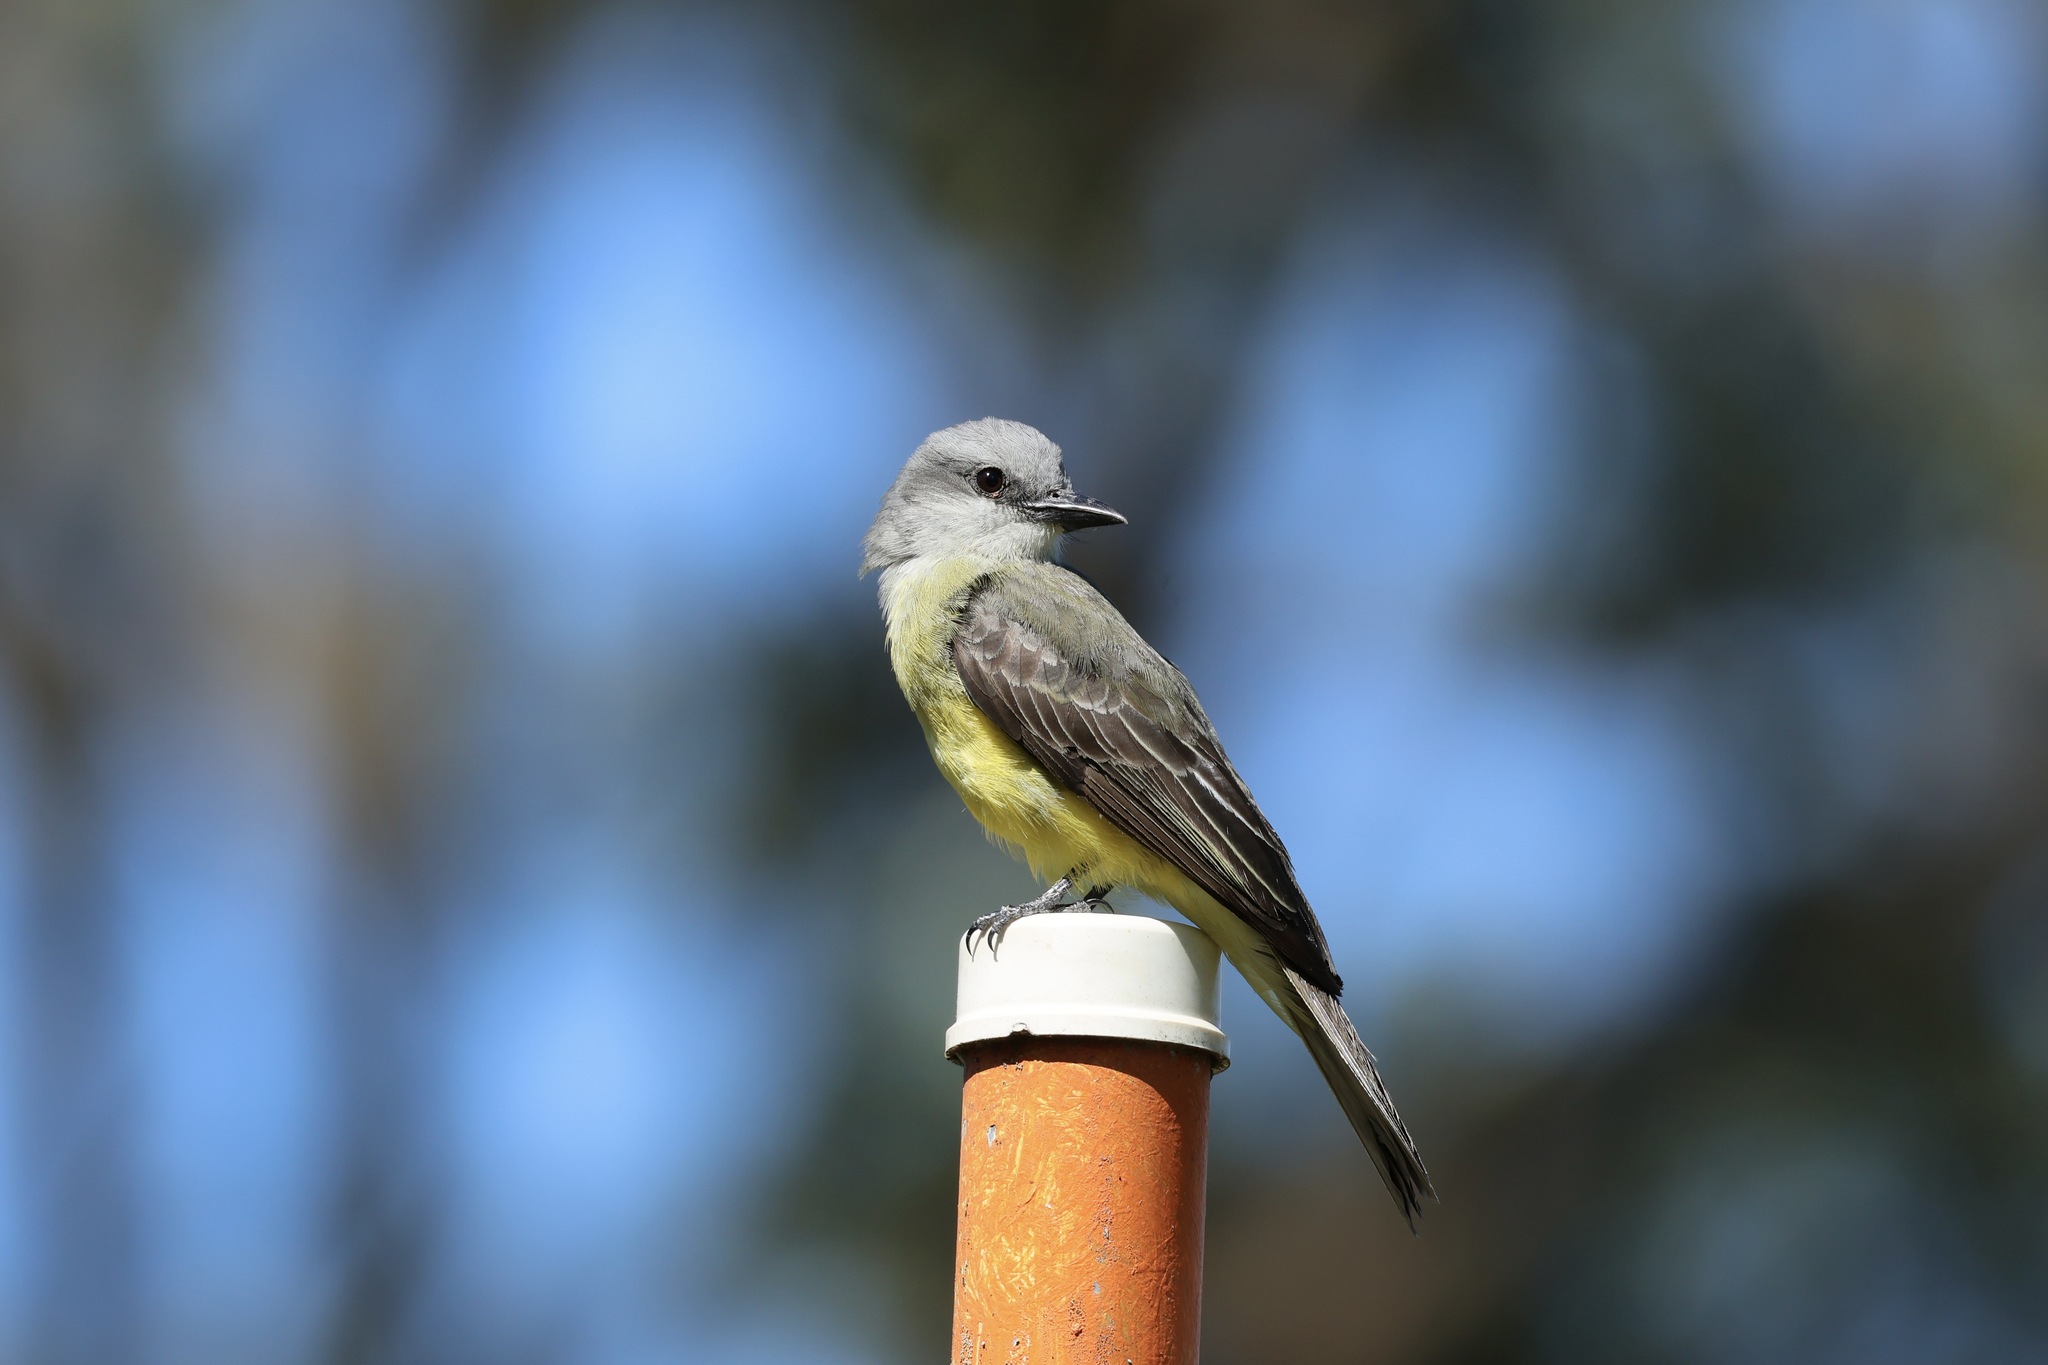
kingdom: Animalia
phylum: Chordata
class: Aves
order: Passeriformes
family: Tyrannidae
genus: Tyrannus
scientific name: Tyrannus melancholicus
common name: Tropical kingbird
